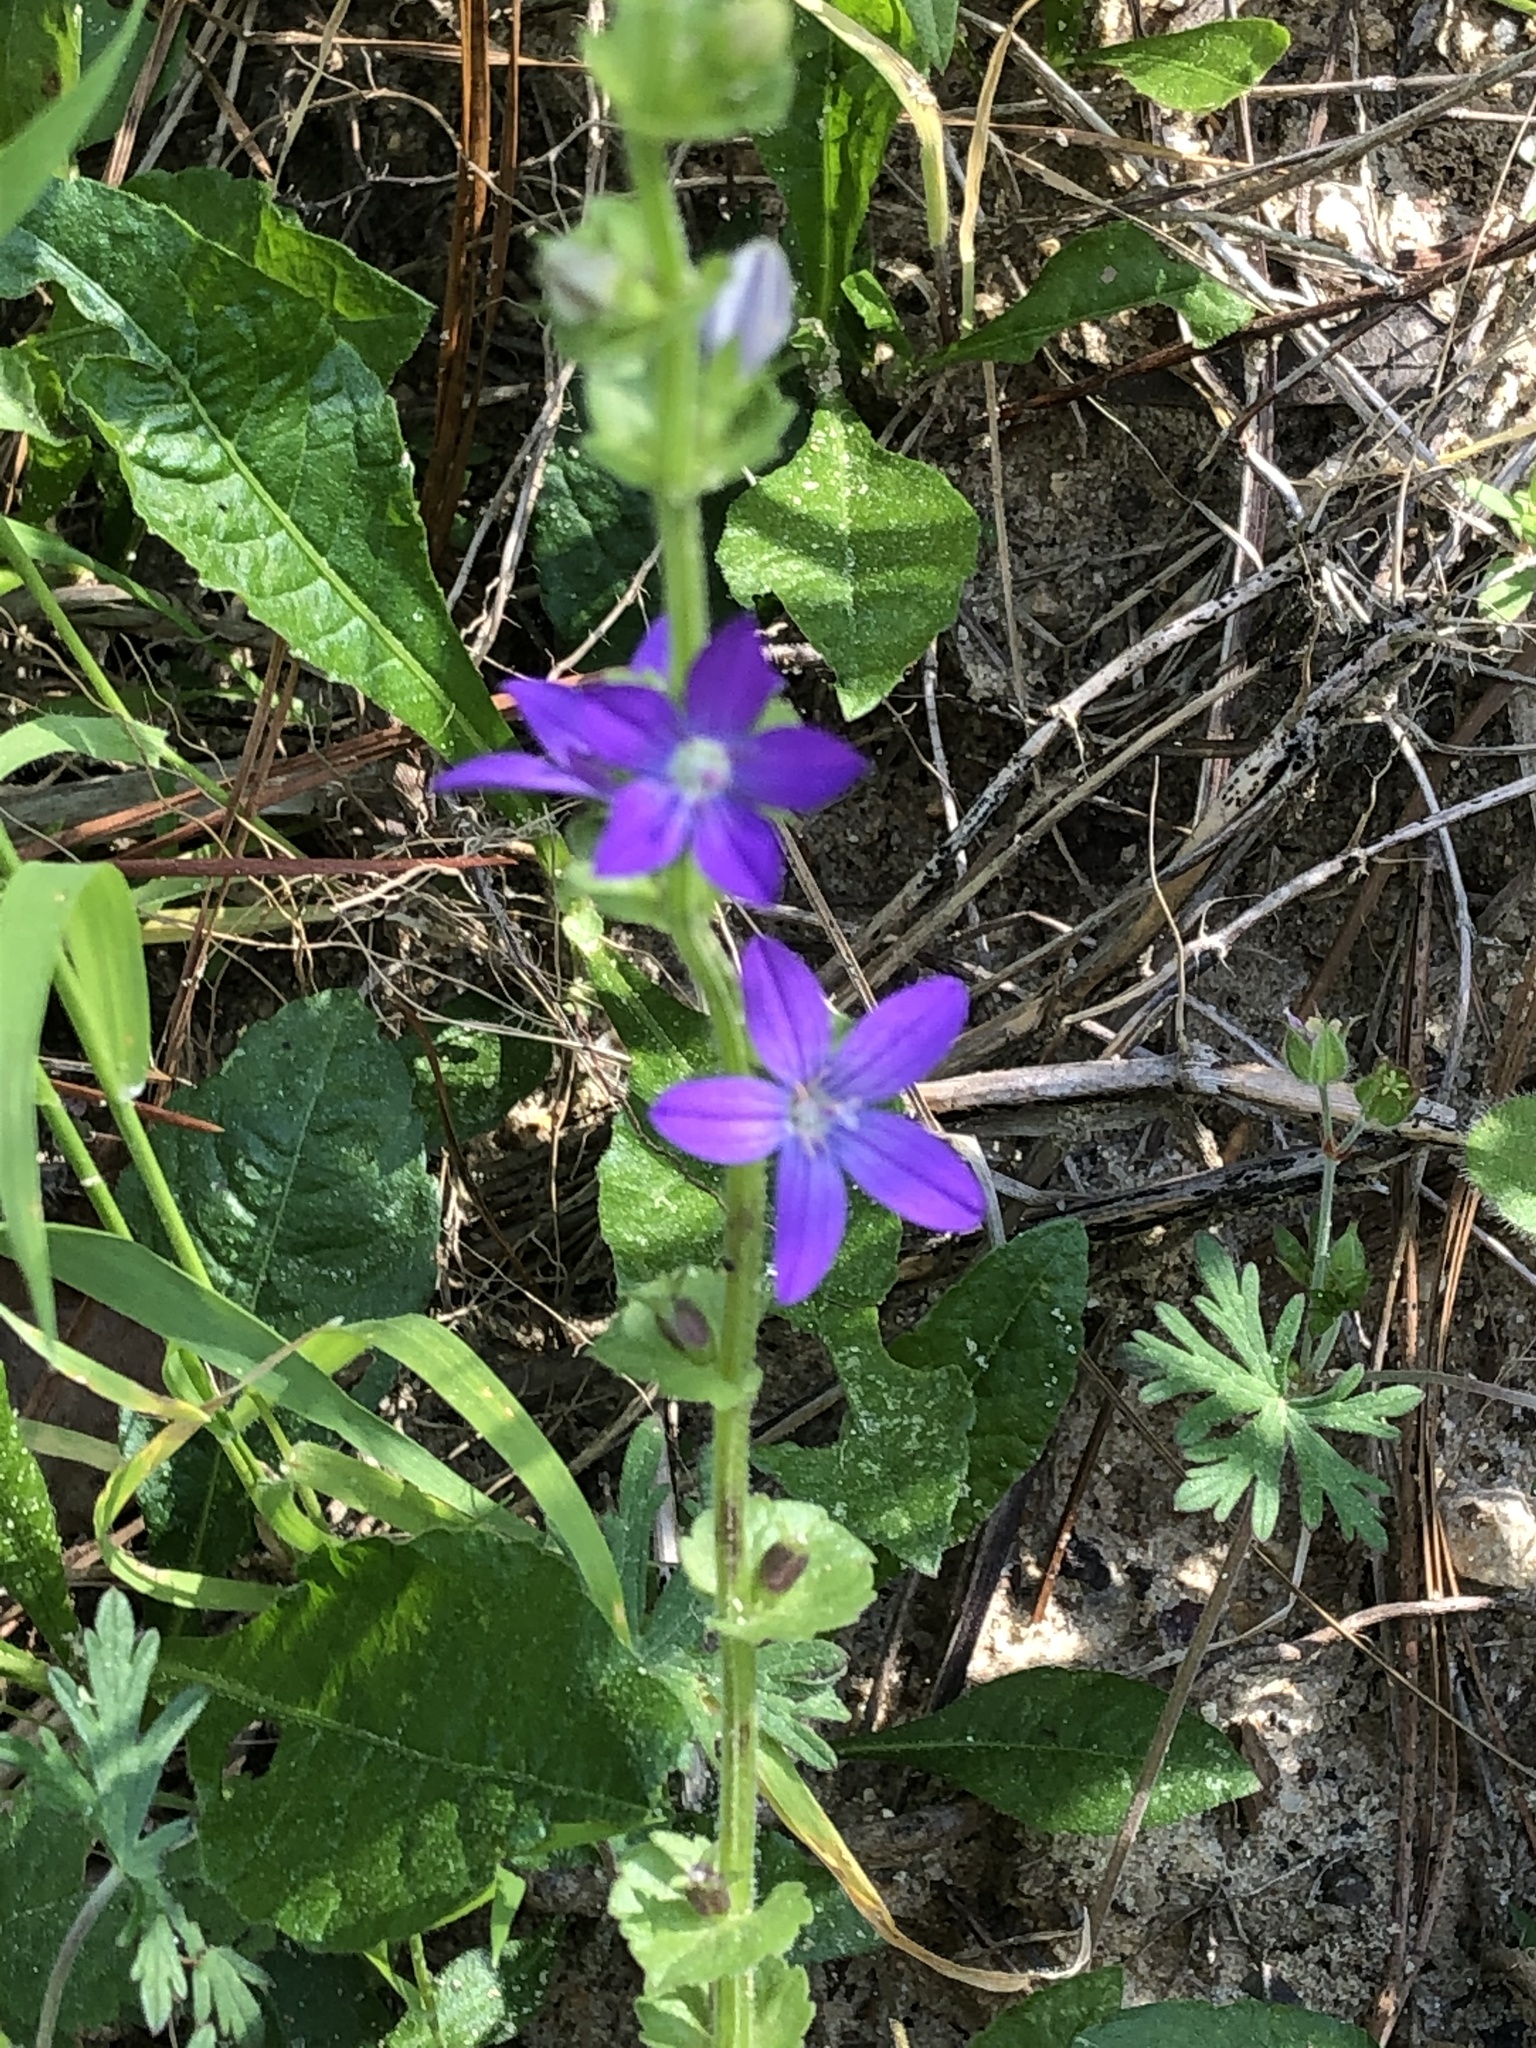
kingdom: Plantae
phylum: Tracheophyta
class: Magnoliopsida
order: Asterales
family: Campanulaceae
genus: Triodanis
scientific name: Triodanis perfoliata
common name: Clasping venus' looking-glass
